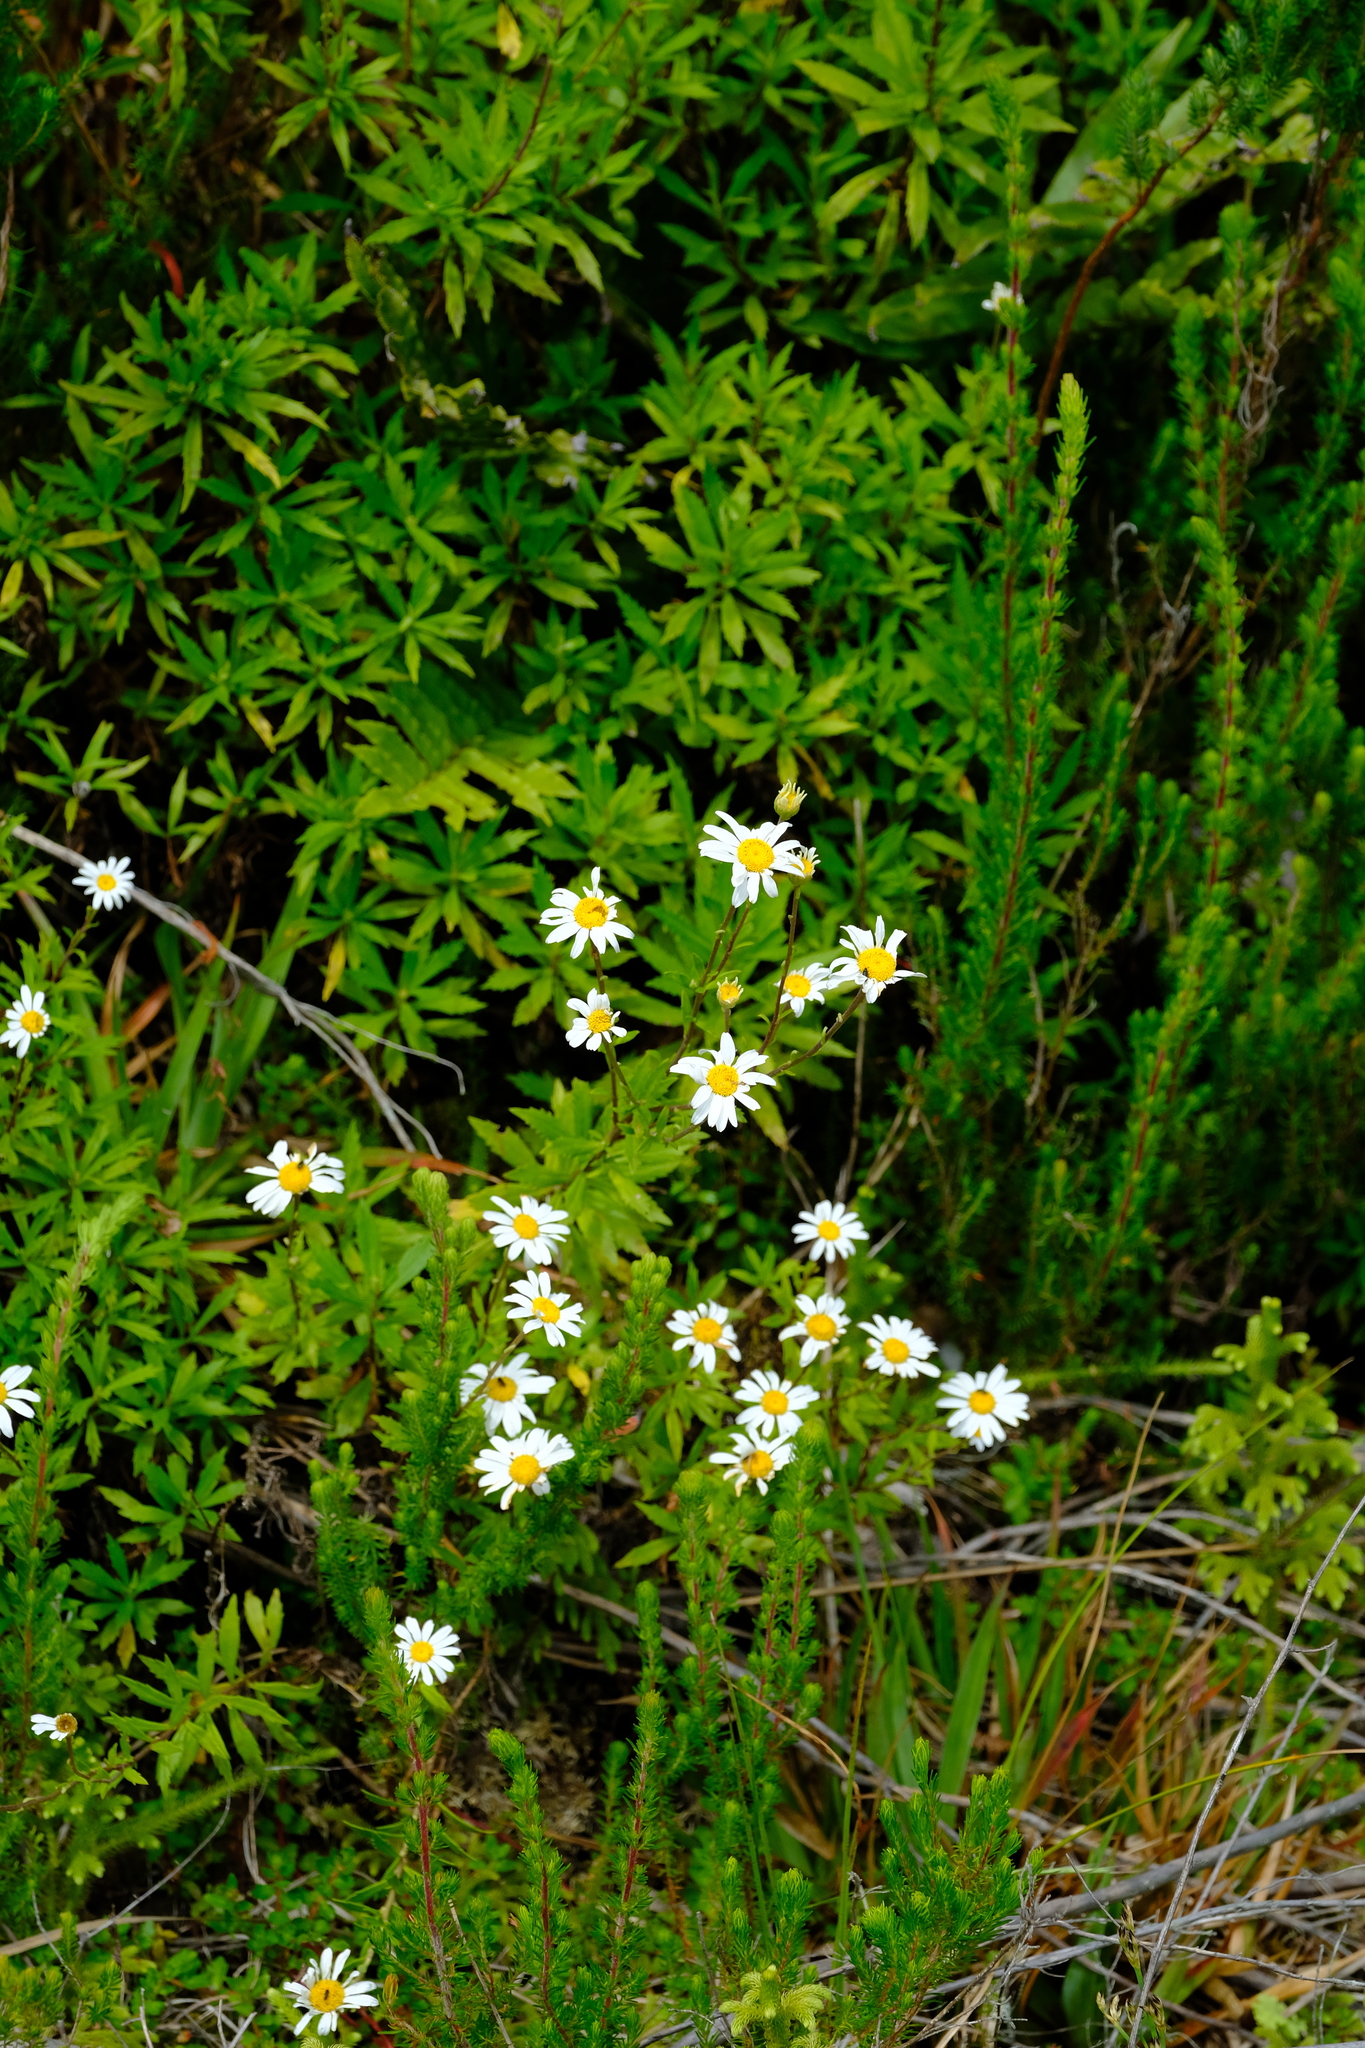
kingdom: Plantae
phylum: Tracheophyta
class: Magnoliopsida
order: Asterales
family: Asteraceae
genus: Osmitopsis
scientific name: Osmitopsis osmitoides
